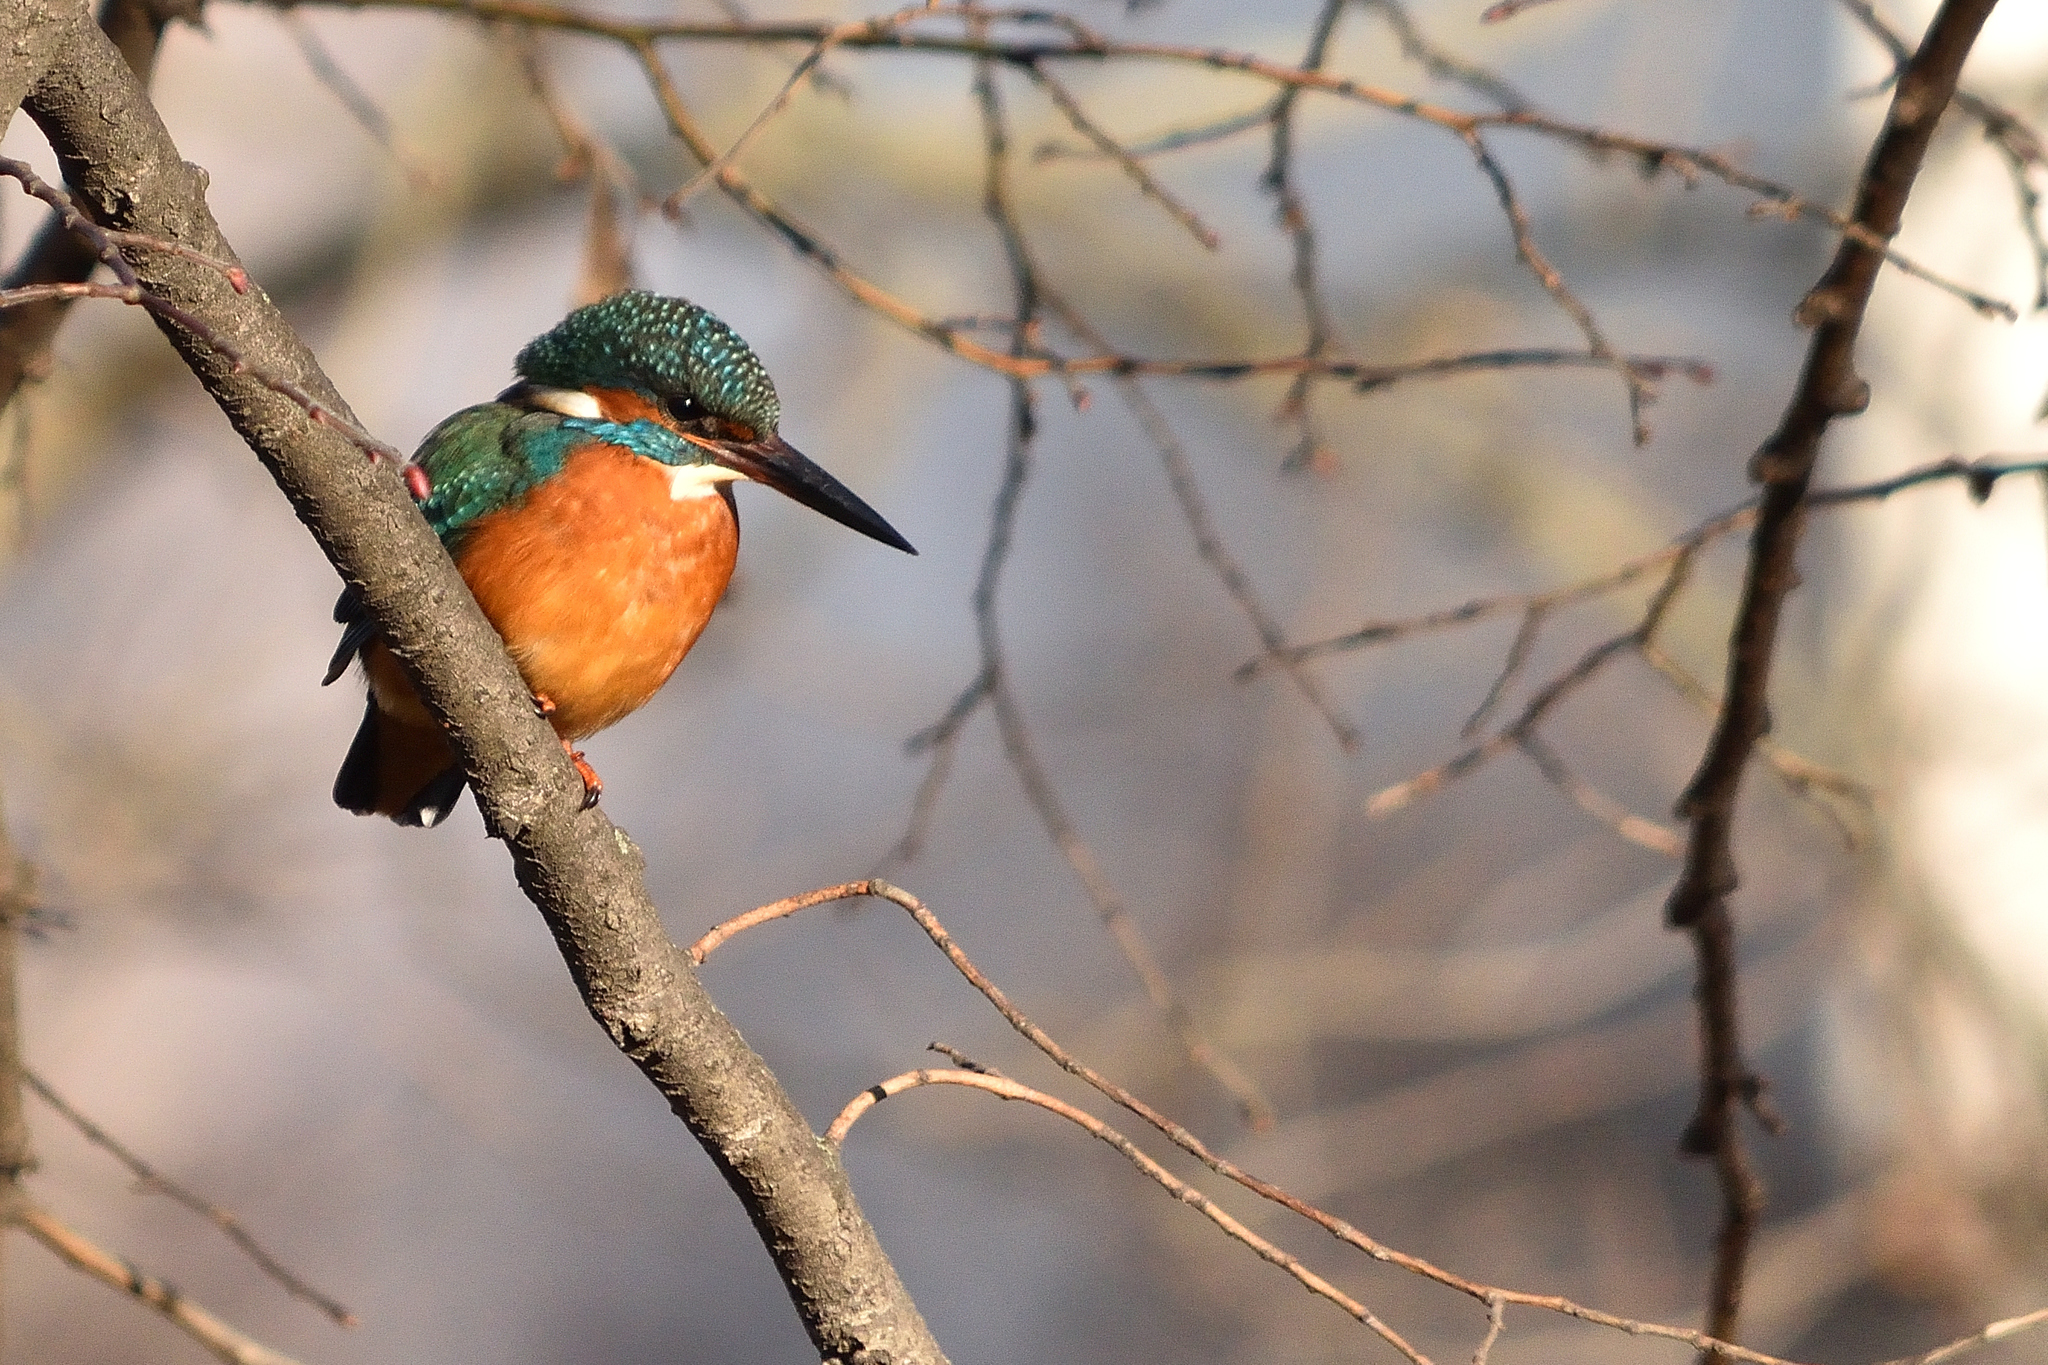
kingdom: Animalia
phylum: Chordata
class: Aves
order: Coraciiformes
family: Alcedinidae
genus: Alcedo
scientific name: Alcedo atthis
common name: Common kingfisher
